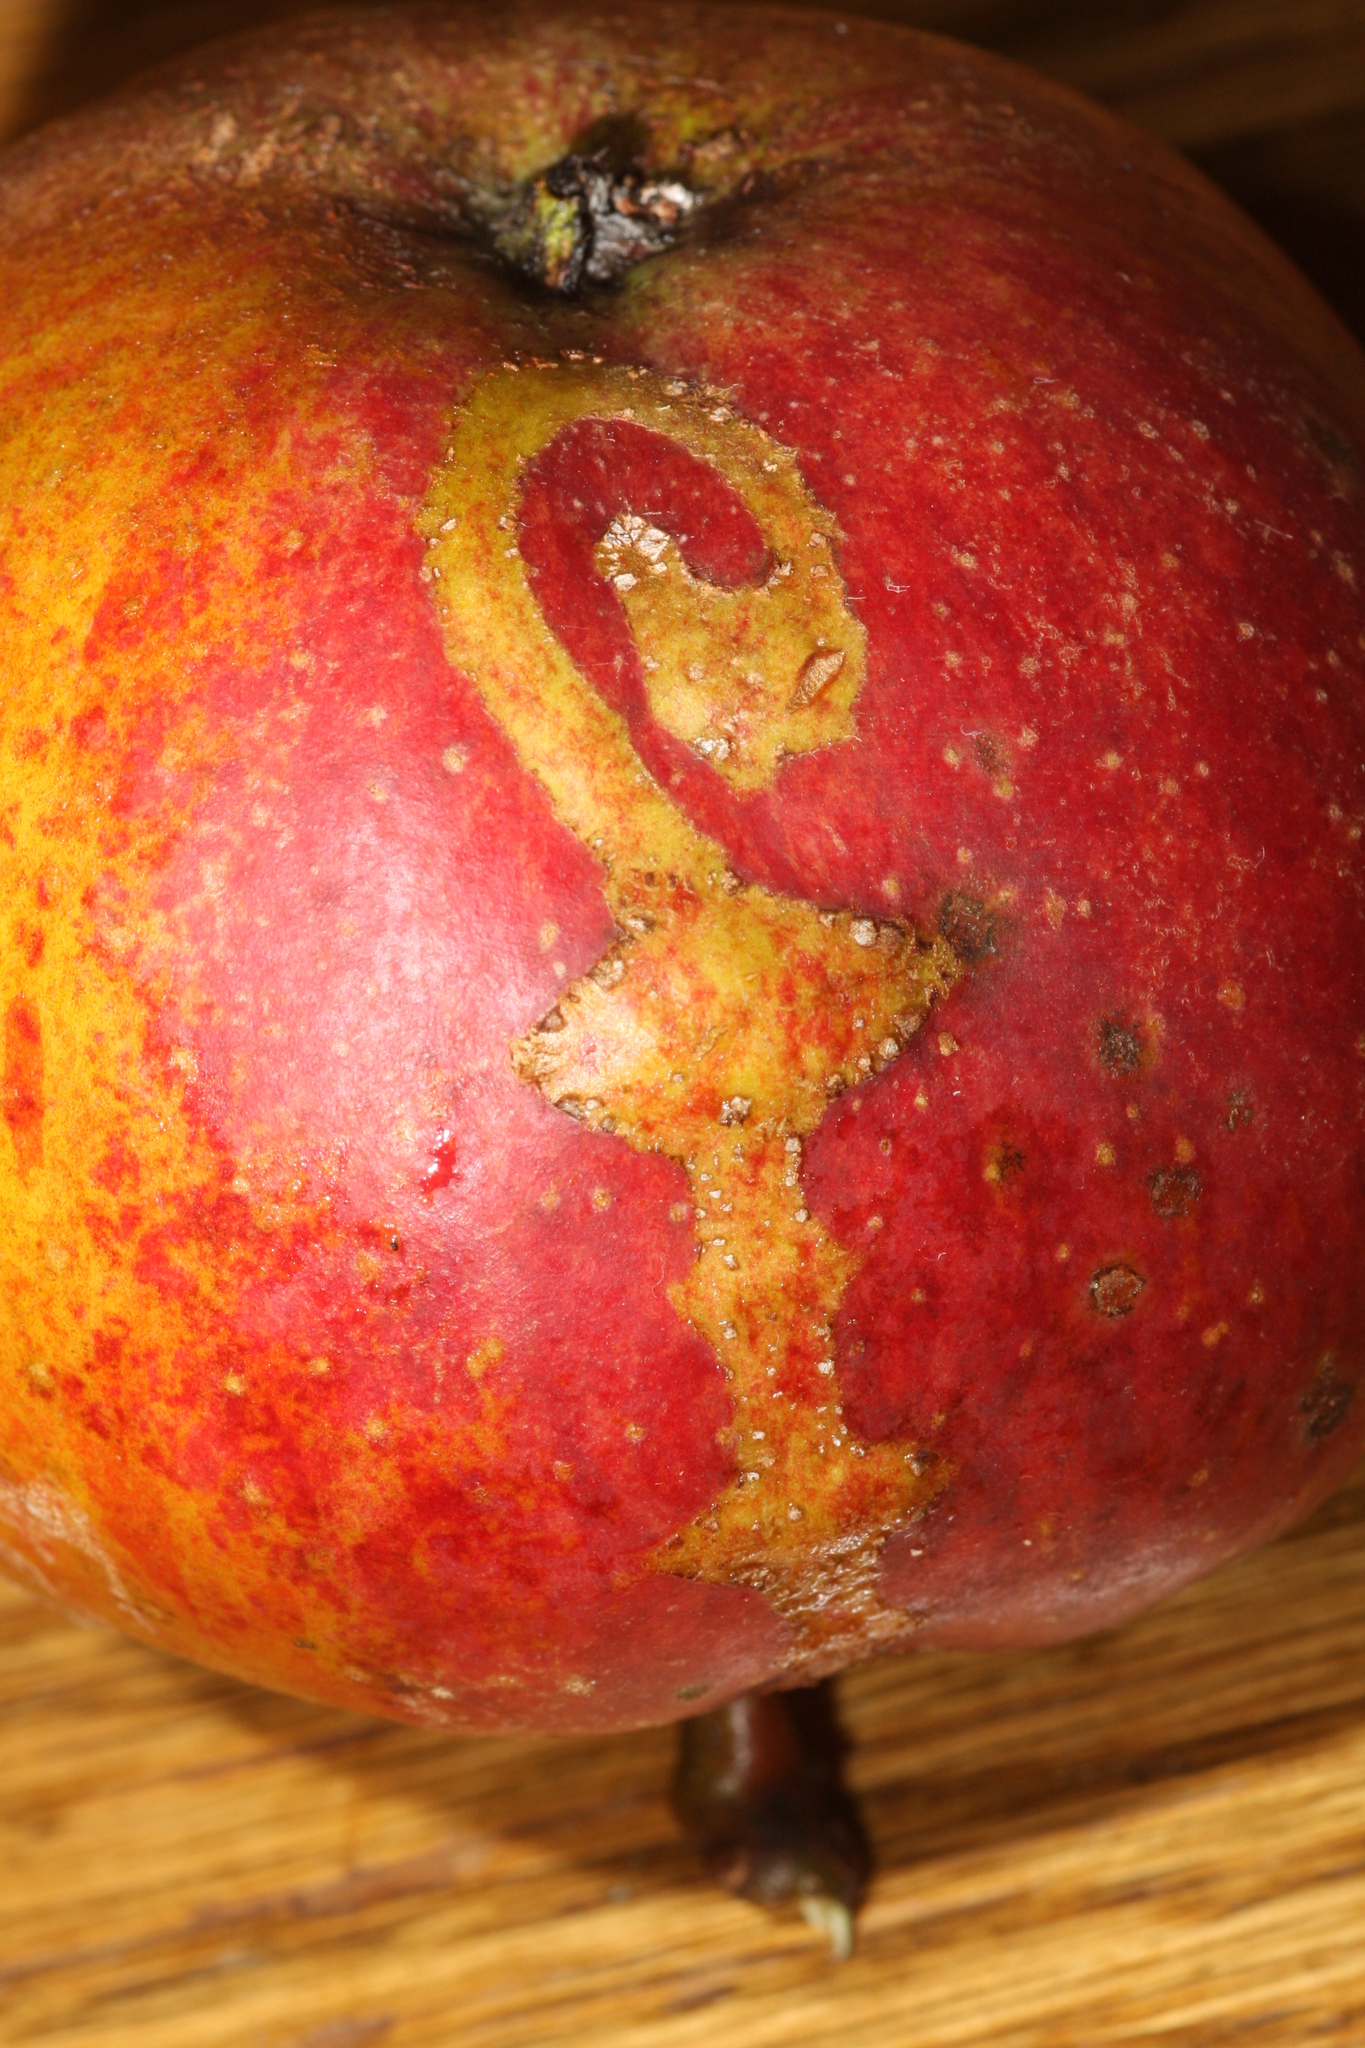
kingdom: Animalia
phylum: Arthropoda
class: Insecta
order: Hymenoptera
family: Tenthredinidae
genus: Hoplocampa
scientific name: Hoplocampa testudinea
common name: European apple sawfly
